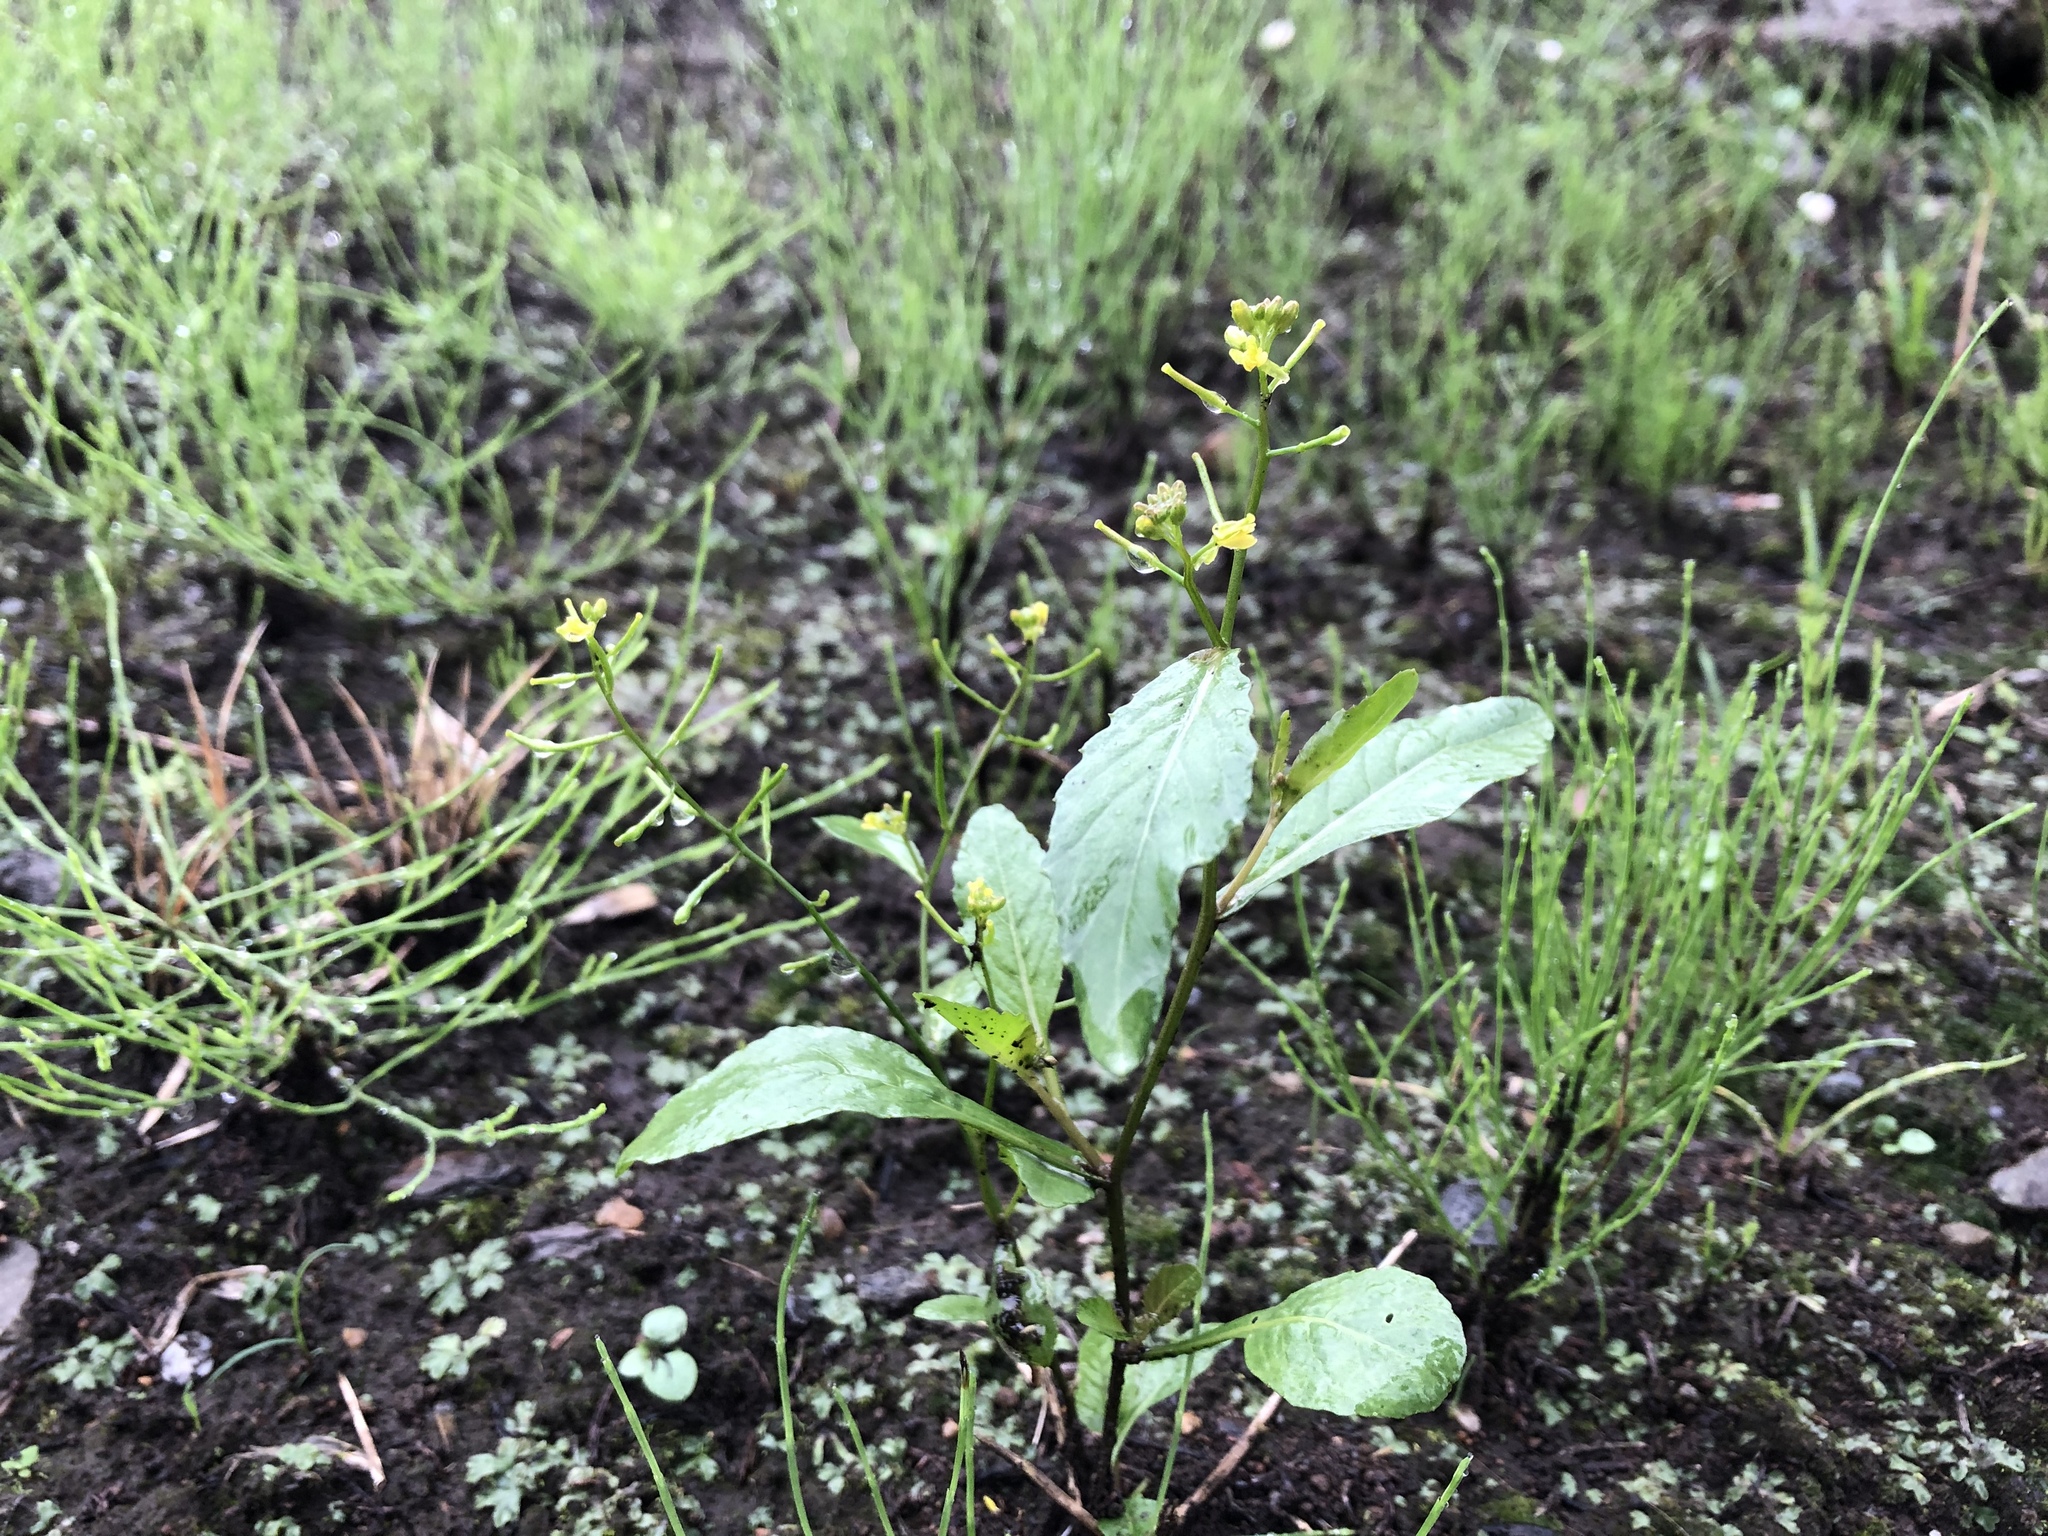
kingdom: Plantae
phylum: Tracheophyta
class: Magnoliopsida
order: Brassicales
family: Brassicaceae
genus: Rorippa
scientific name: Rorippa indica
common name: Variableleaf yellowcress
